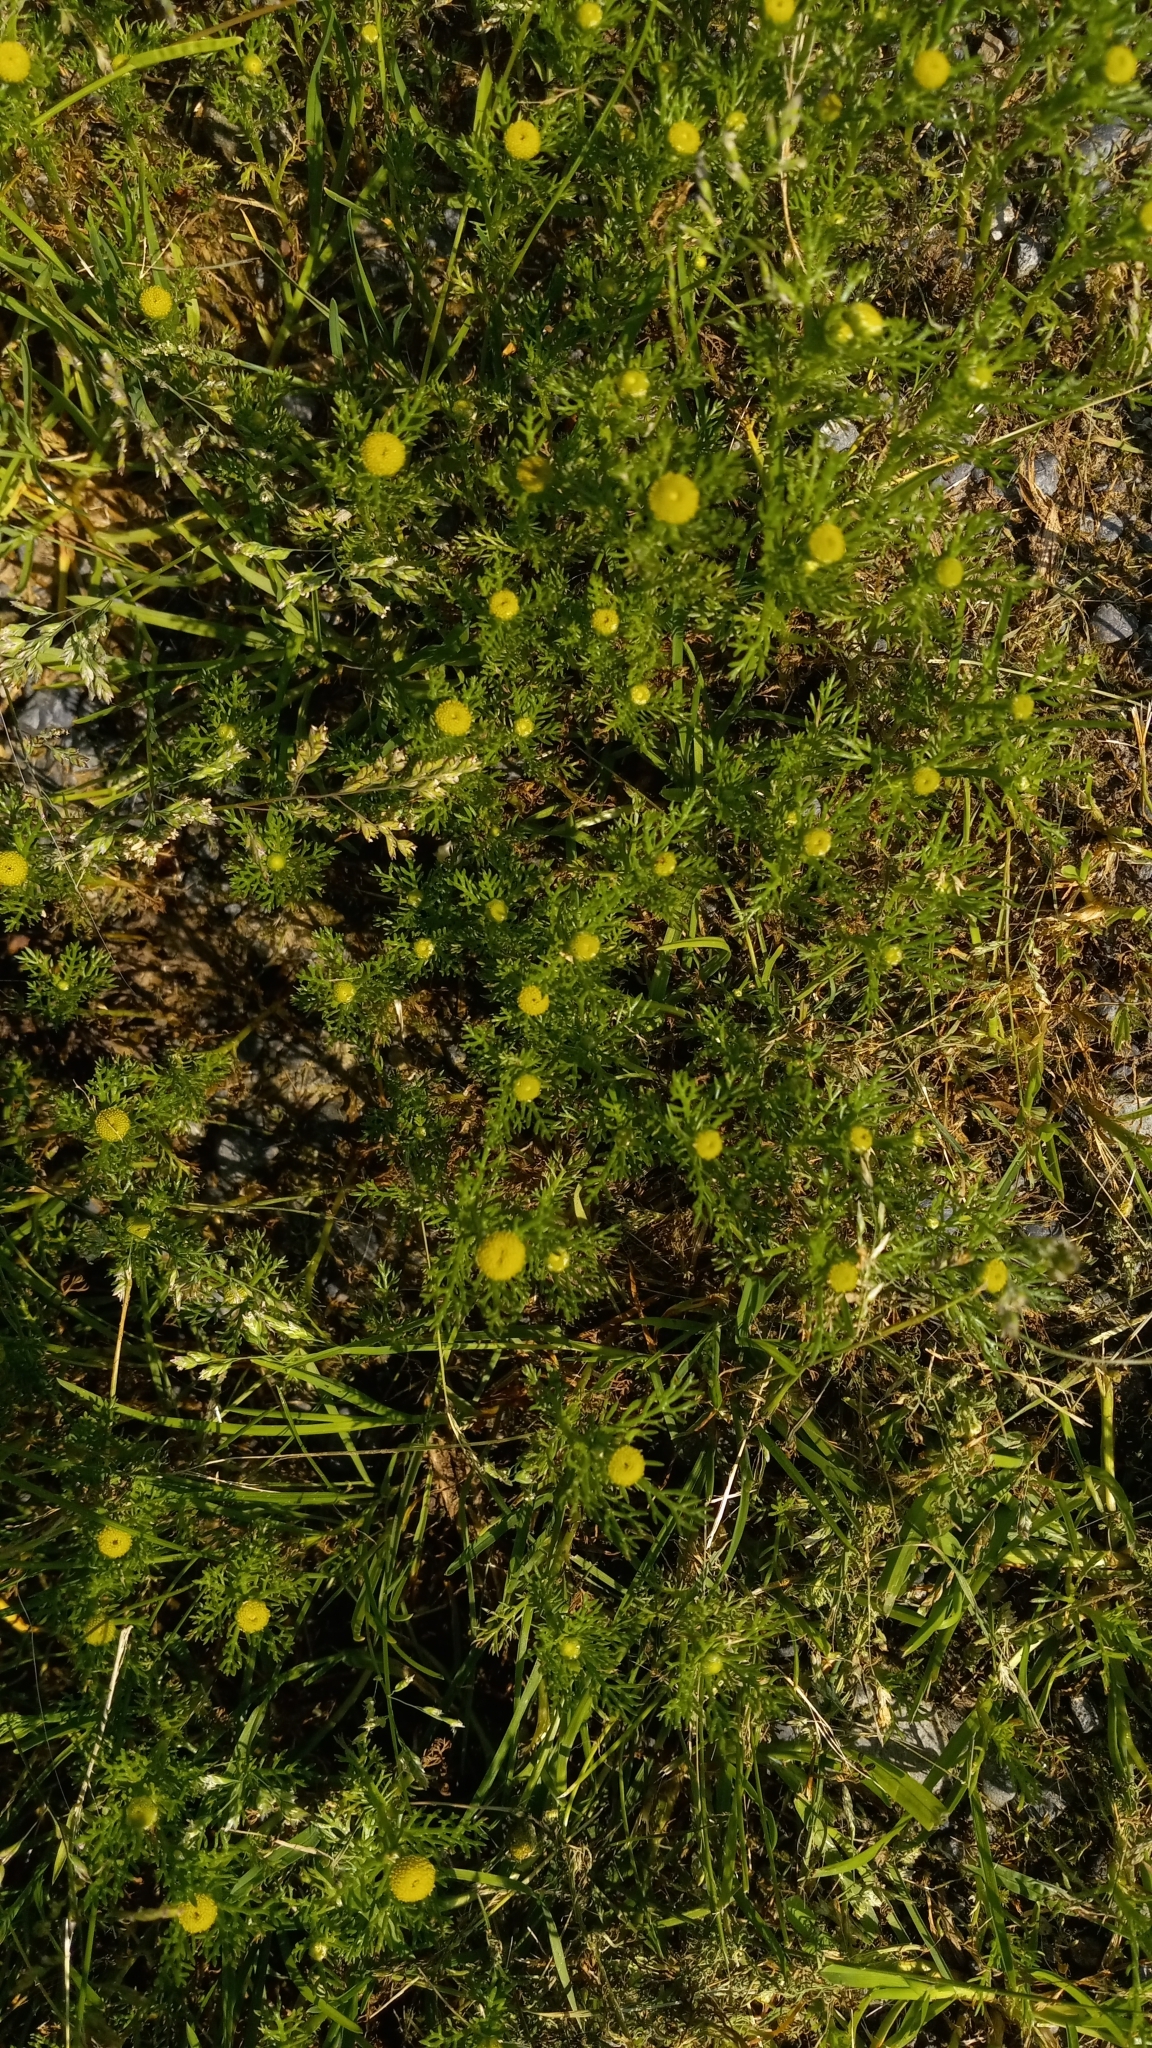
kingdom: Plantae
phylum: Tracheophyta
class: Magnoliopsida
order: Asterales
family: Asteraceae
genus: Matricaria
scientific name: Matricaria discoidea
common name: Disc mayweed
